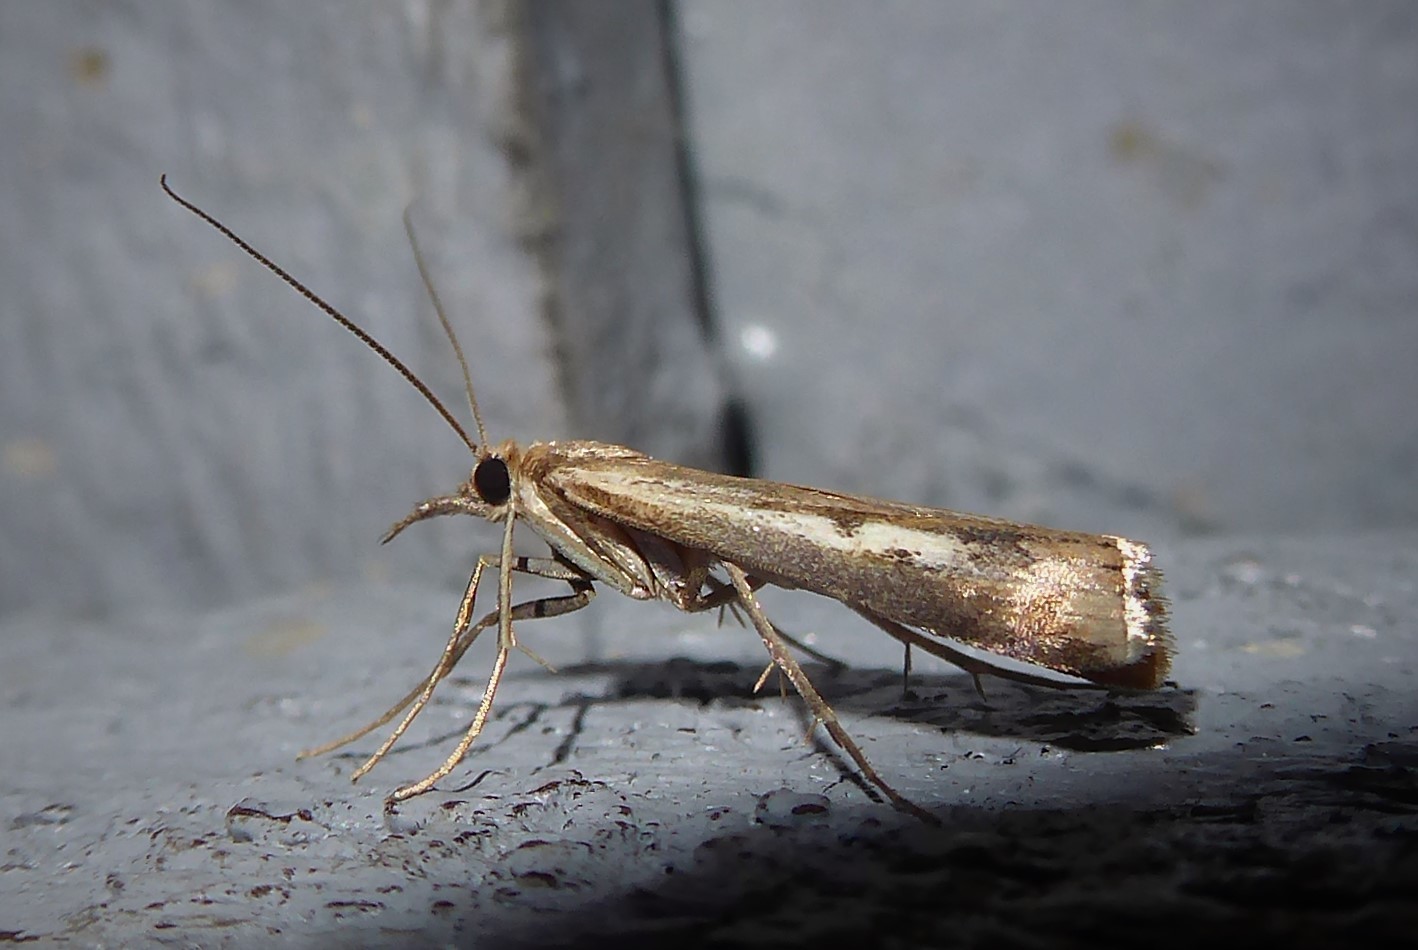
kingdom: Animalia
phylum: Arthropoda
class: Insecta
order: Lepidoptera
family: Crambidae
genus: Orocrambus
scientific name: Orocrambus vulgaris
